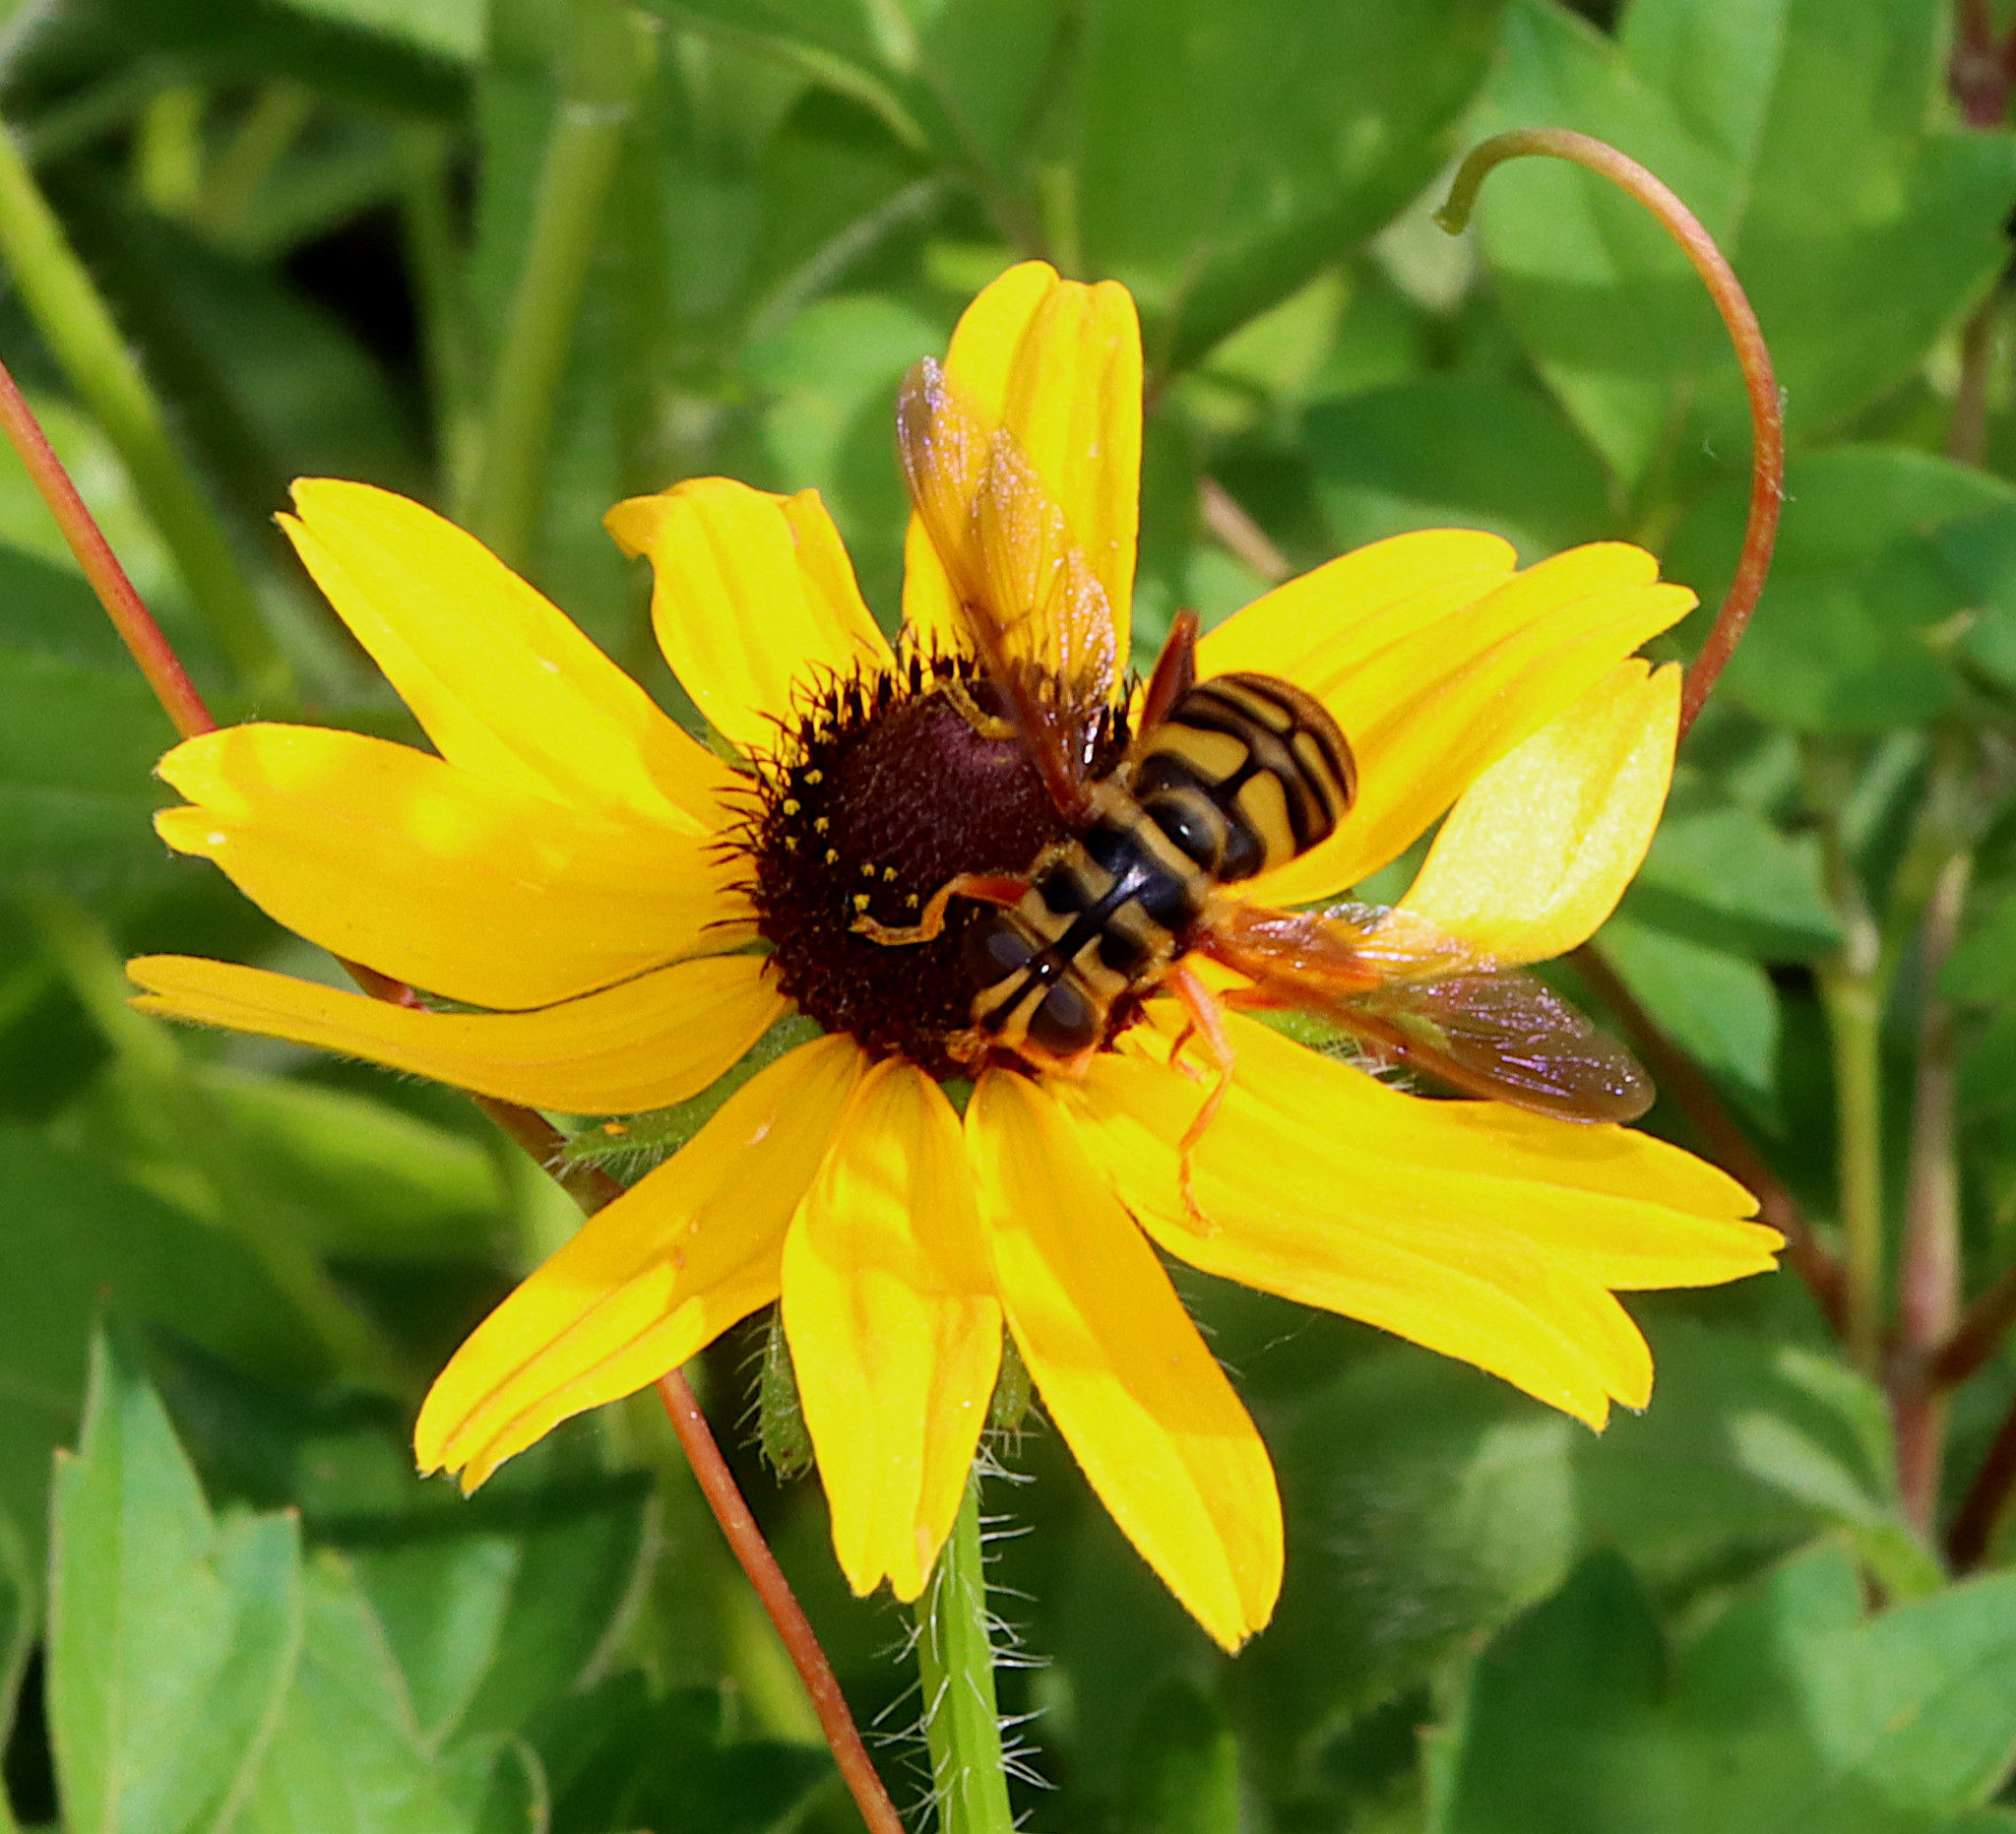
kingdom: Animalia
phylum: Arthropoda
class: Insecta
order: Diptera
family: Syrphidae
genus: Milesia
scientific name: Milesia virginiensis
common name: Virginia giant
